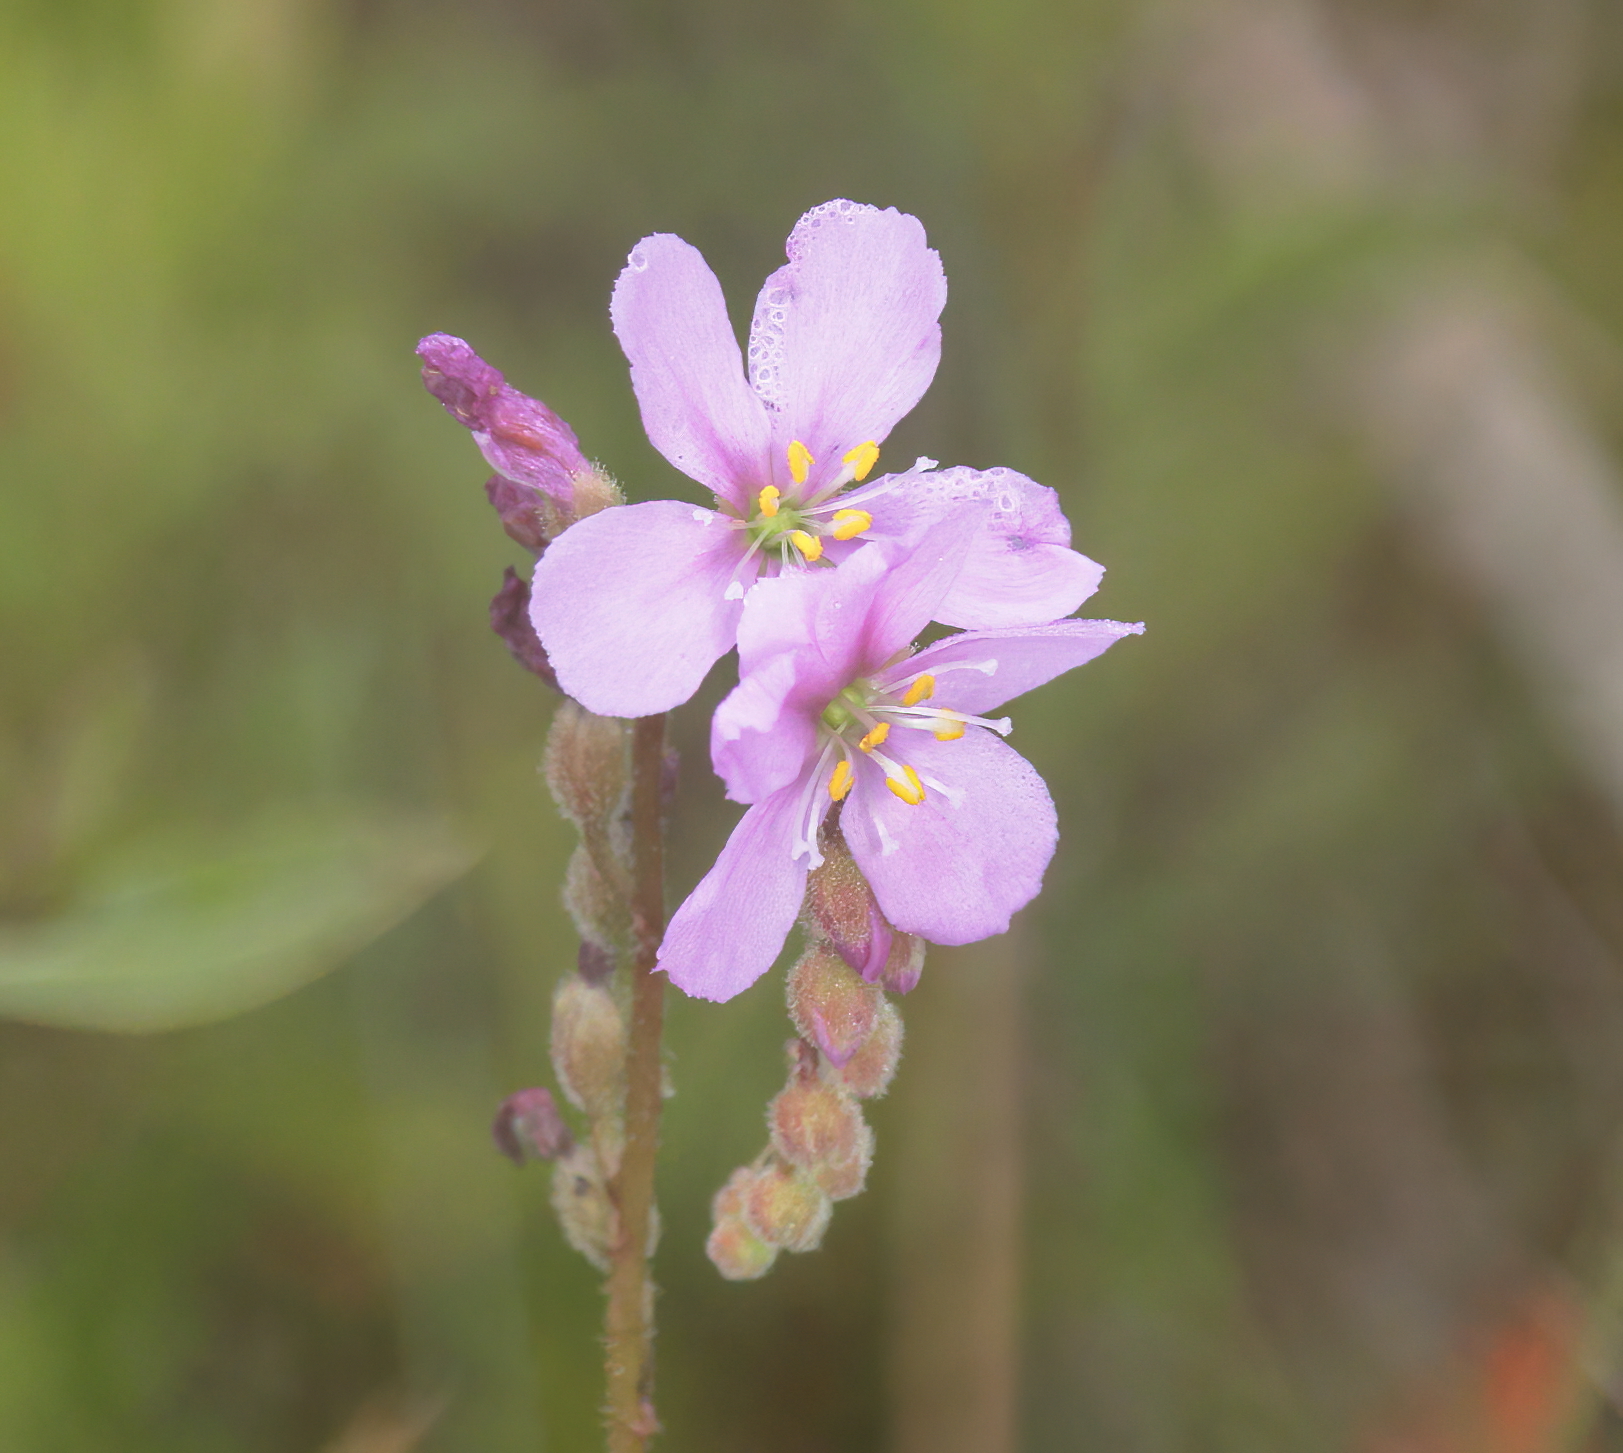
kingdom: Plantae
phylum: Tracheophyta
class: Magnoliopsida
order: Caryophyllales
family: Droseraceae
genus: Drosera
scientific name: Drosera filiformis
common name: Dew-thread
